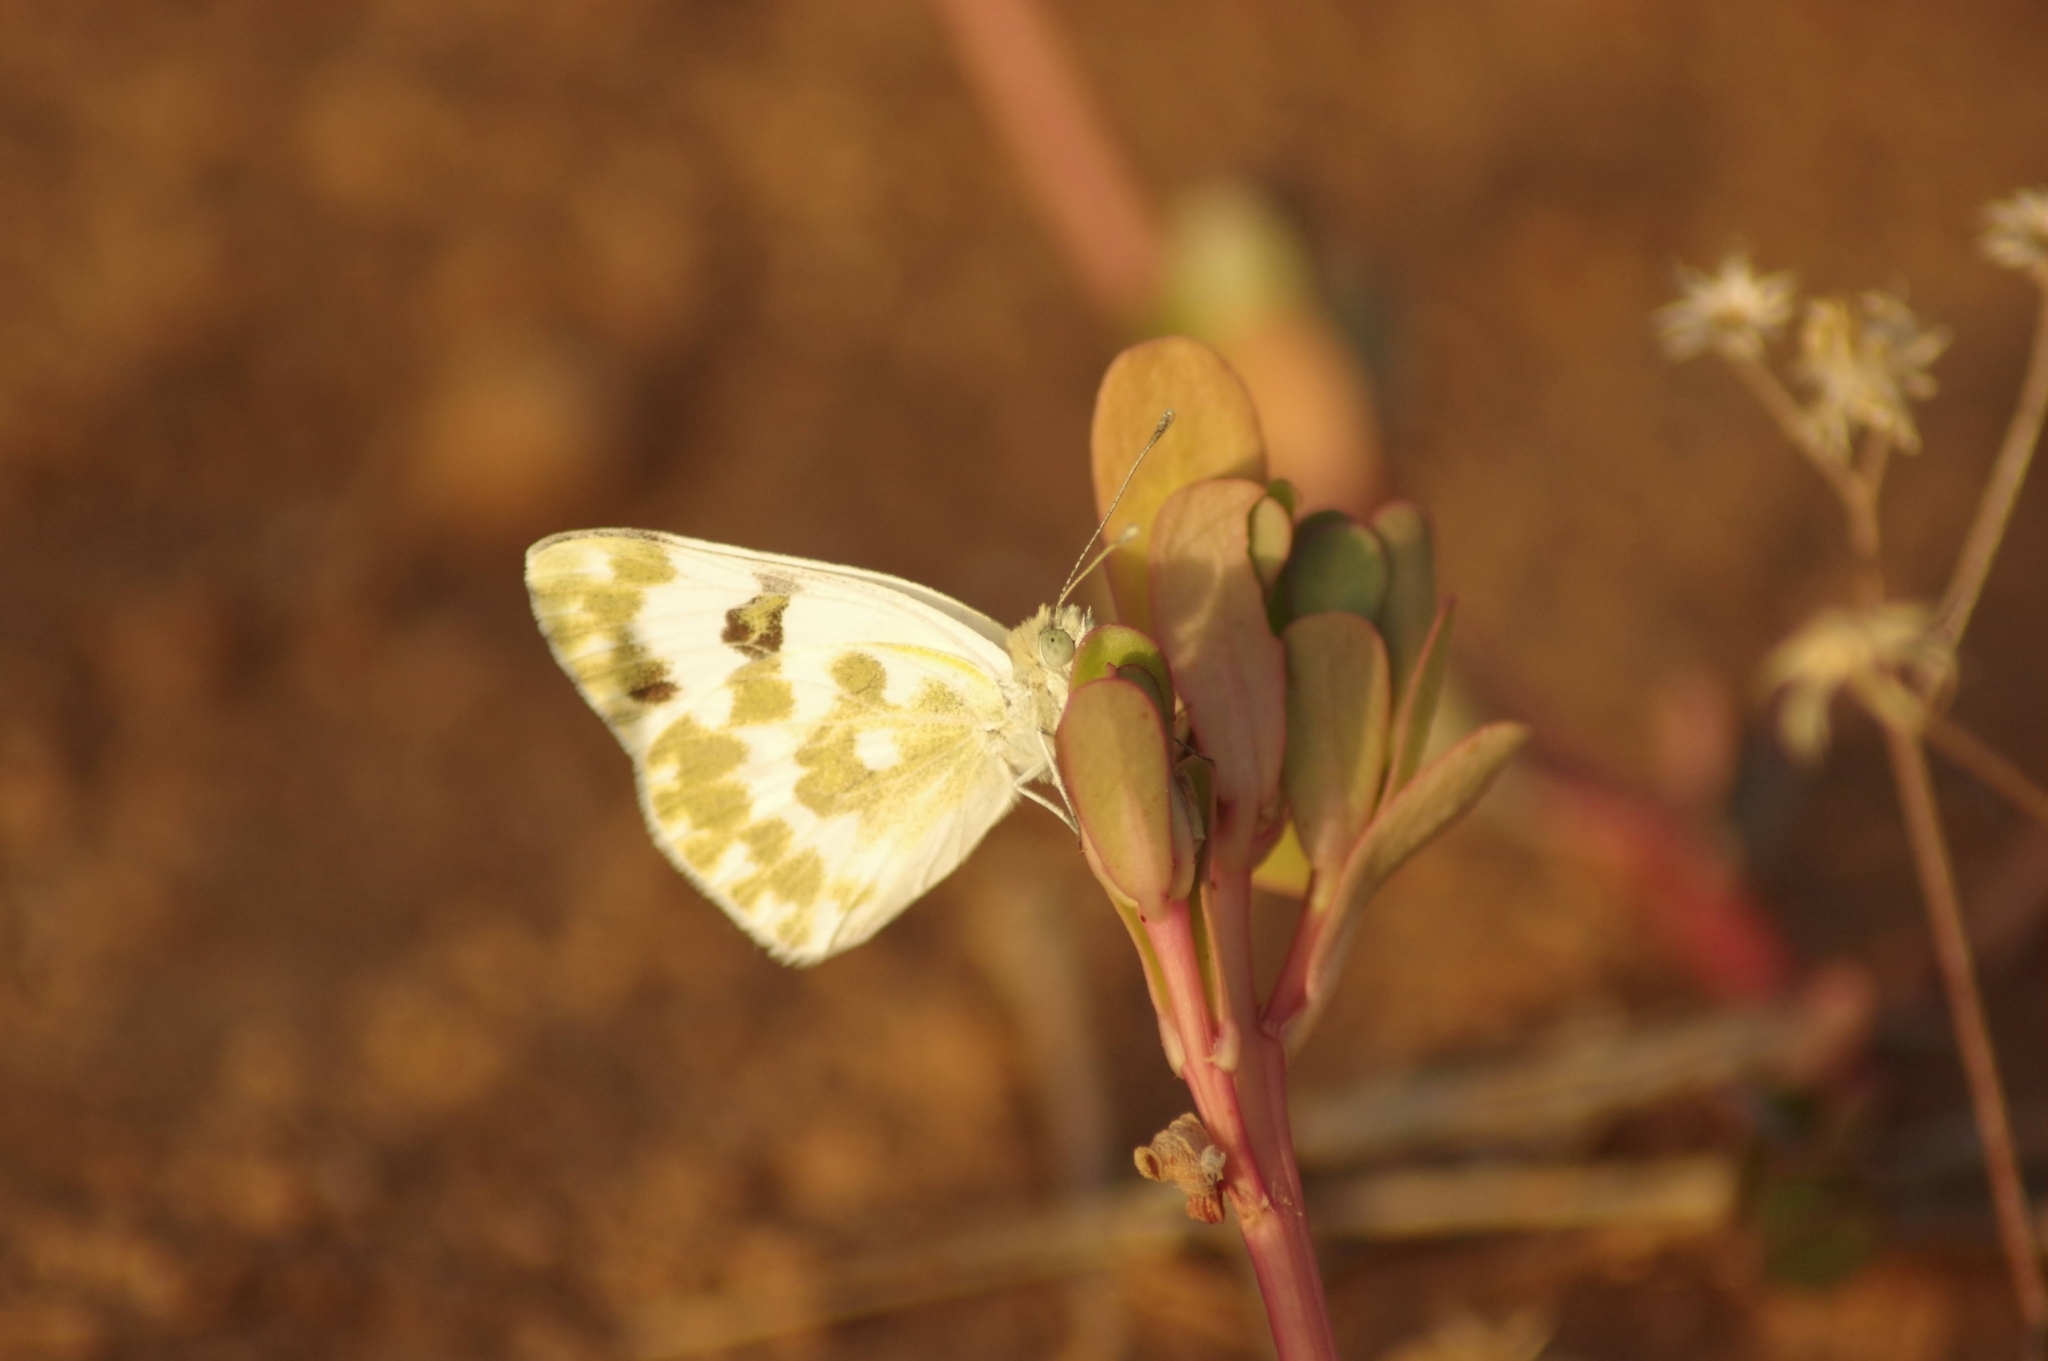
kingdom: Animalia
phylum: Arthropoda
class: Insecta
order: Lepidoptera
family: Pieridae
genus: Pontia
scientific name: Pontia daplidice
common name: Bath white
